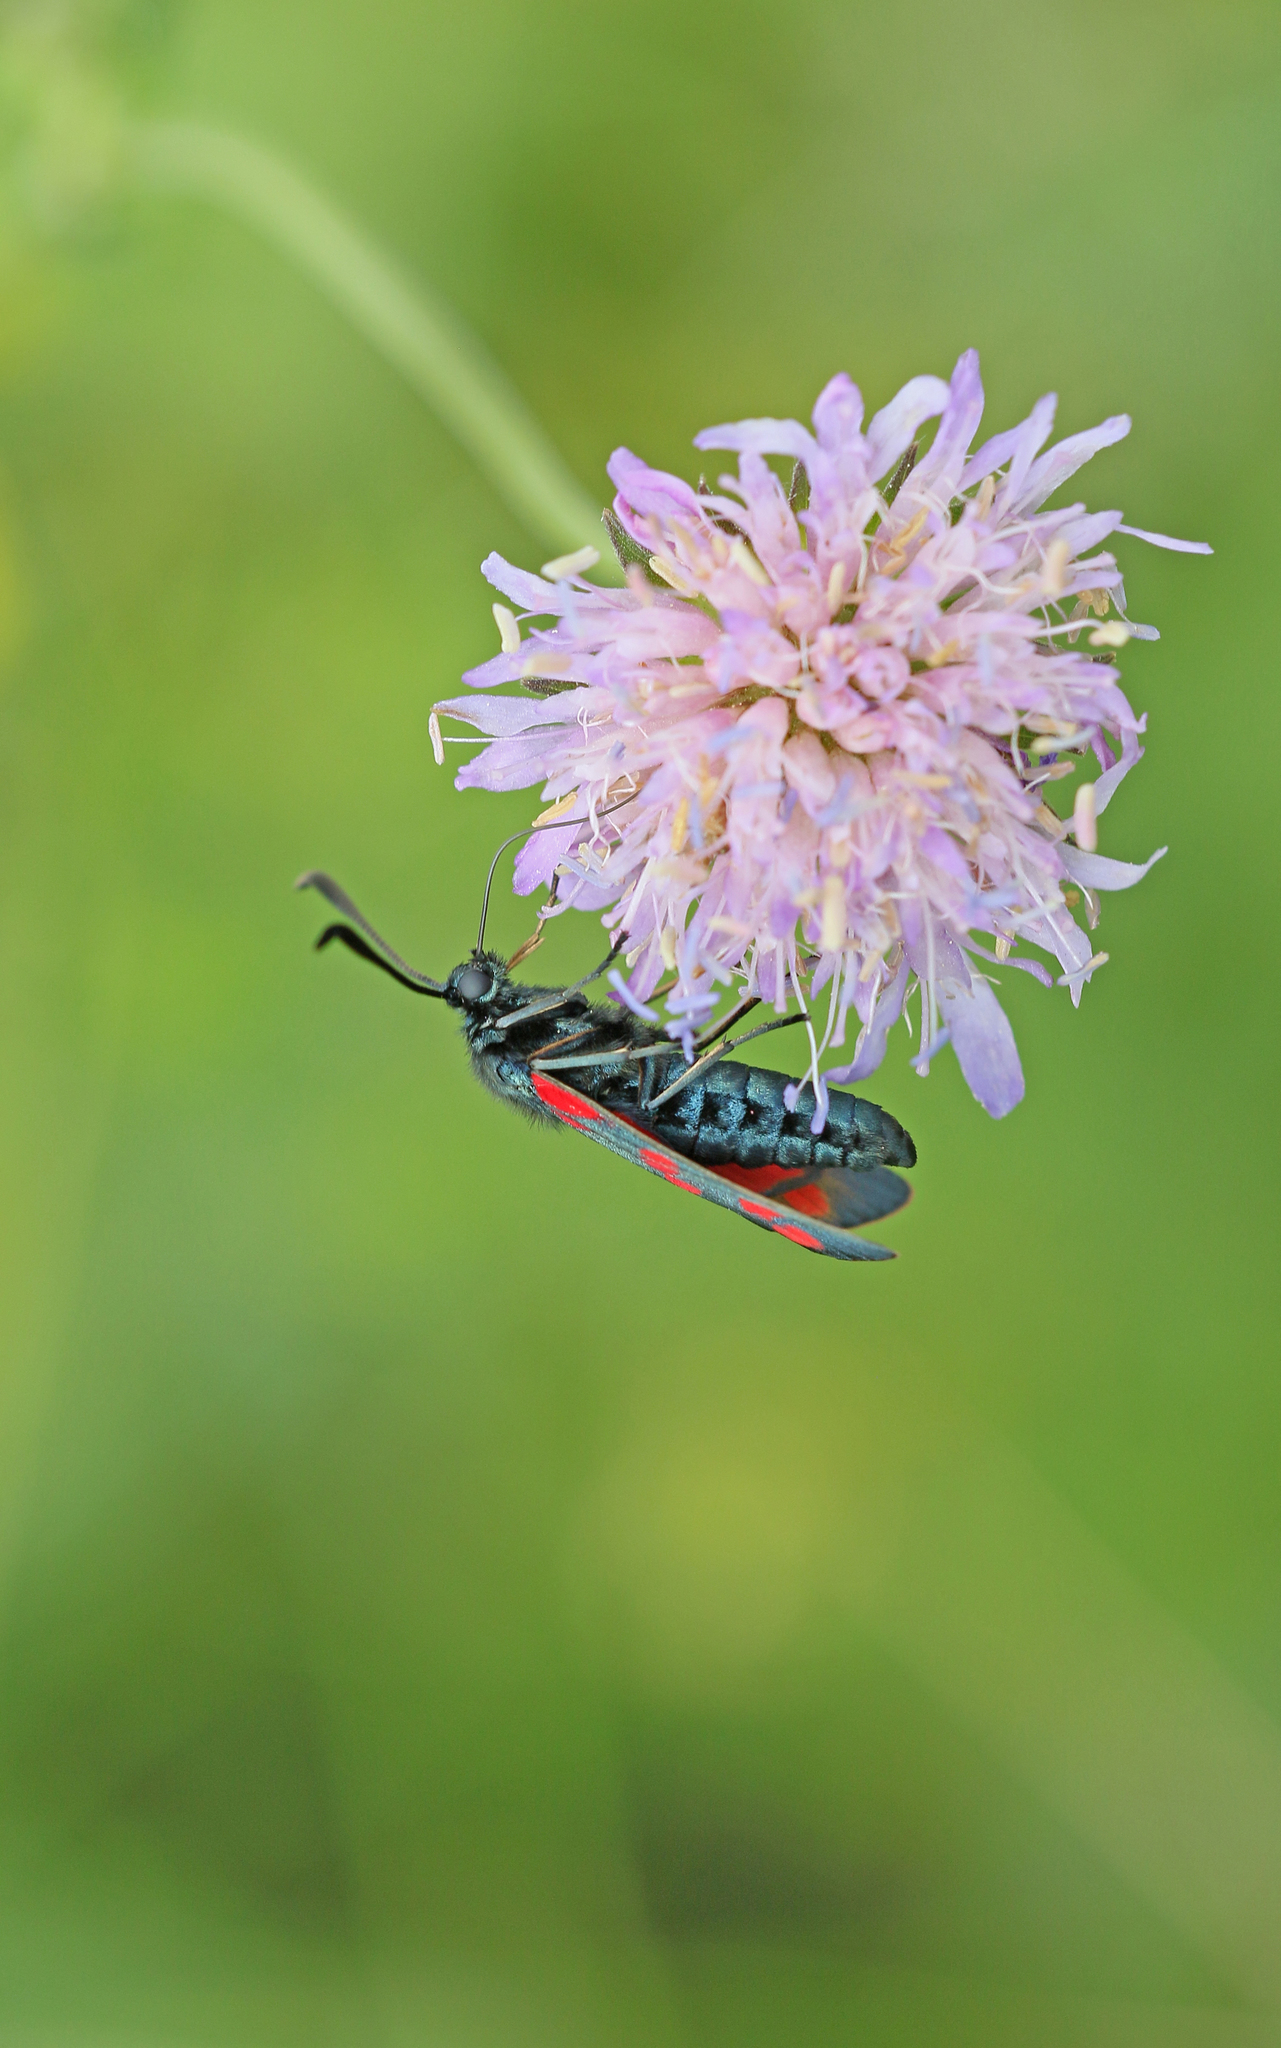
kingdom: Animalia
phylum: Arthropoda
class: Insecta
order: Lepidoptera
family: Zygaenidae
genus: Zygaena
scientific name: Zygaena filipendulae
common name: Six-spot burnet
